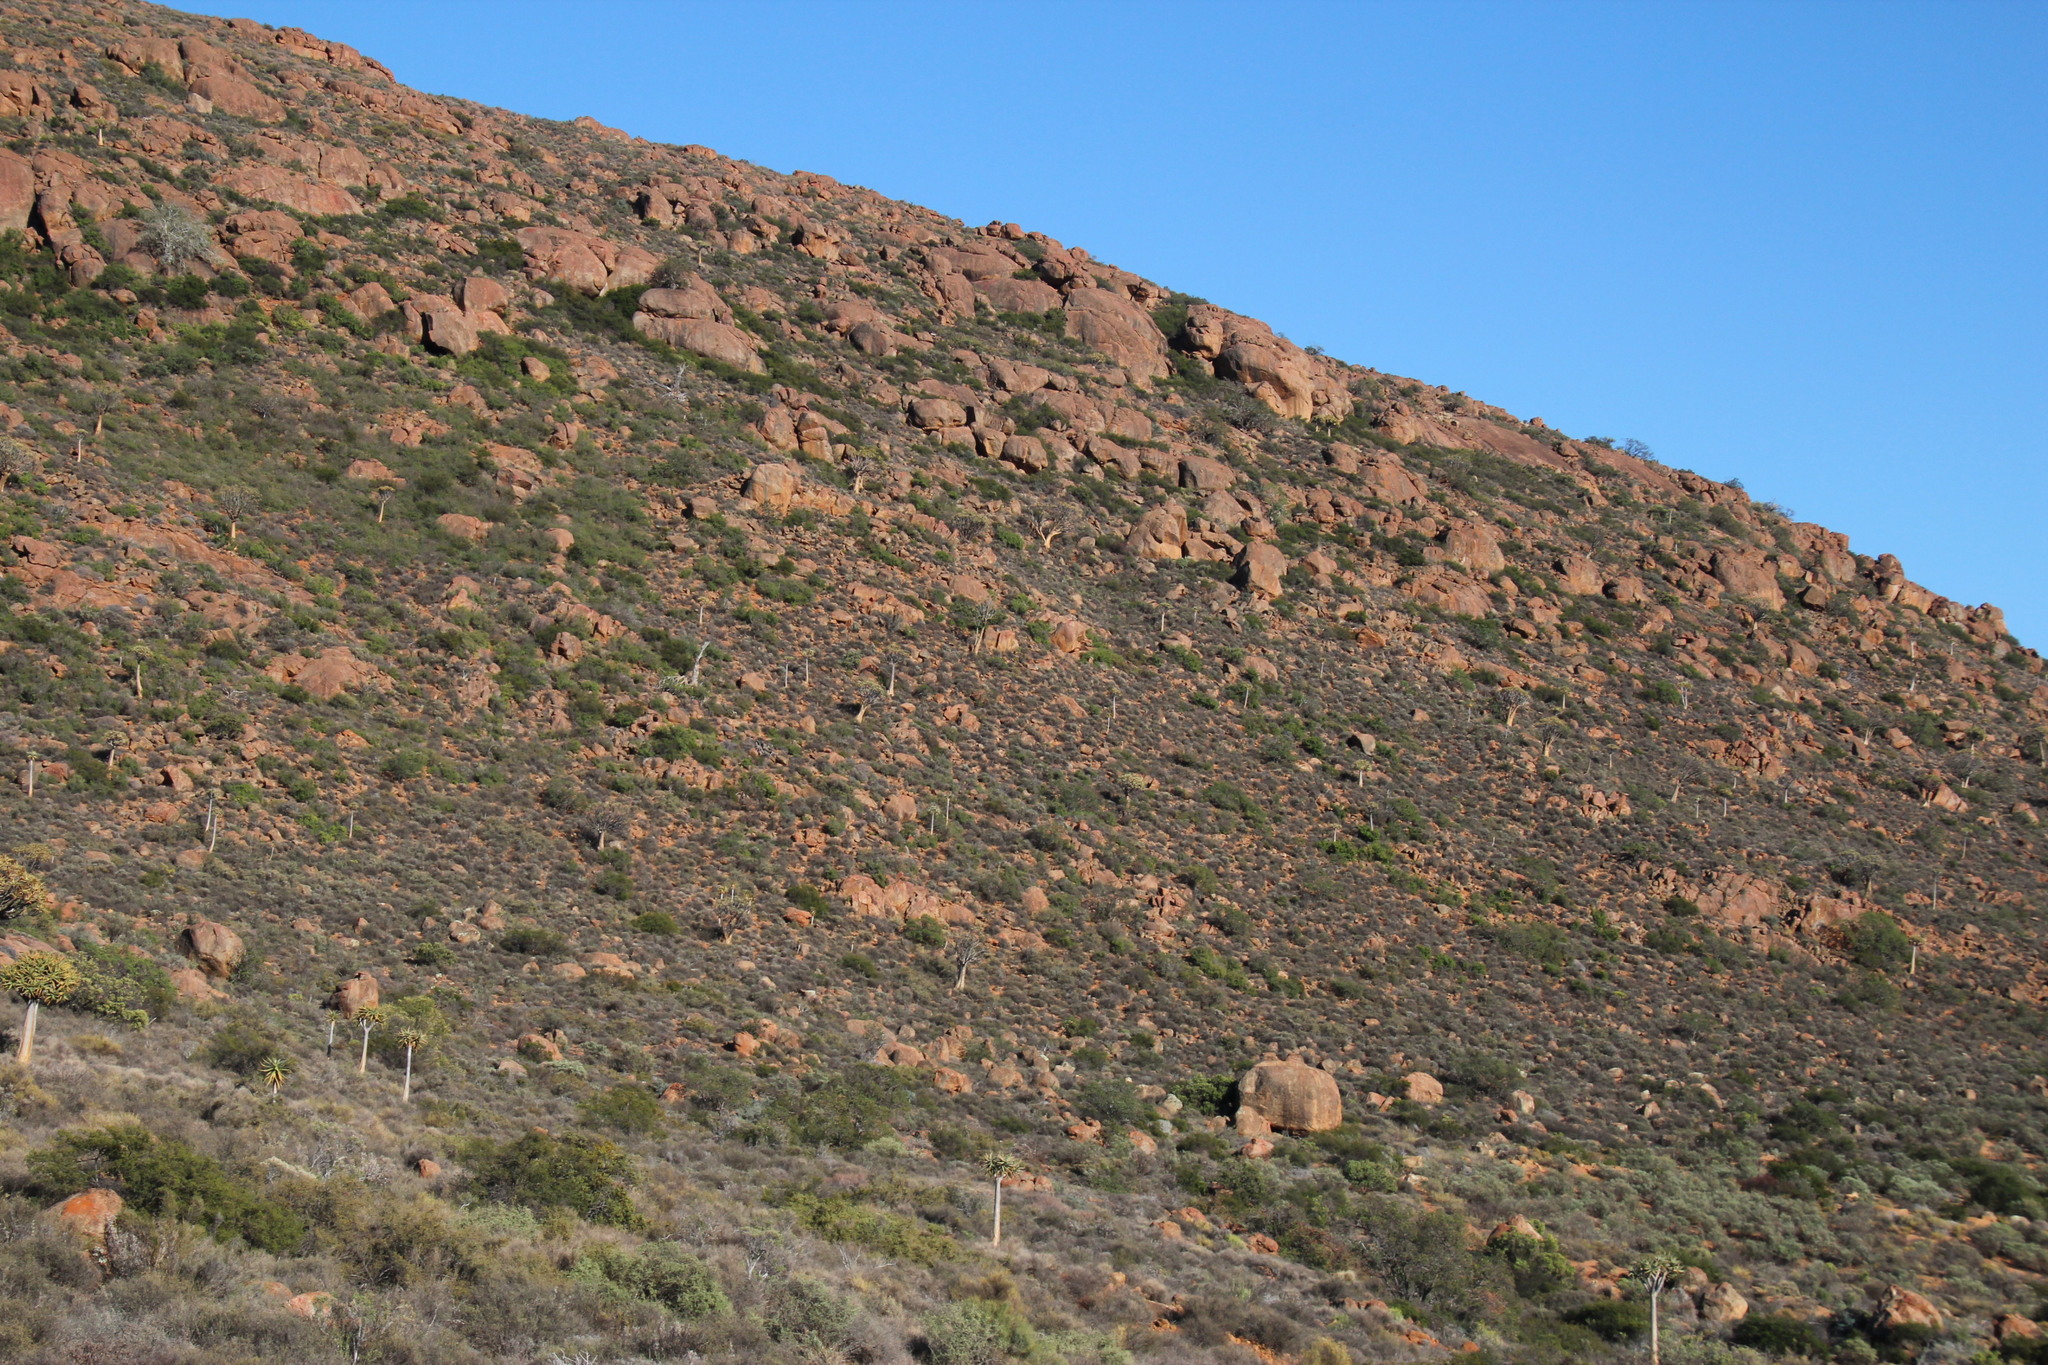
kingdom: Plantae
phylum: Tracheophyta
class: Liliopsida
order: Asparagales
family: Asphodelaceae
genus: Aloidendron
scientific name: Aloidendron dichotomum
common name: Quiver tree
